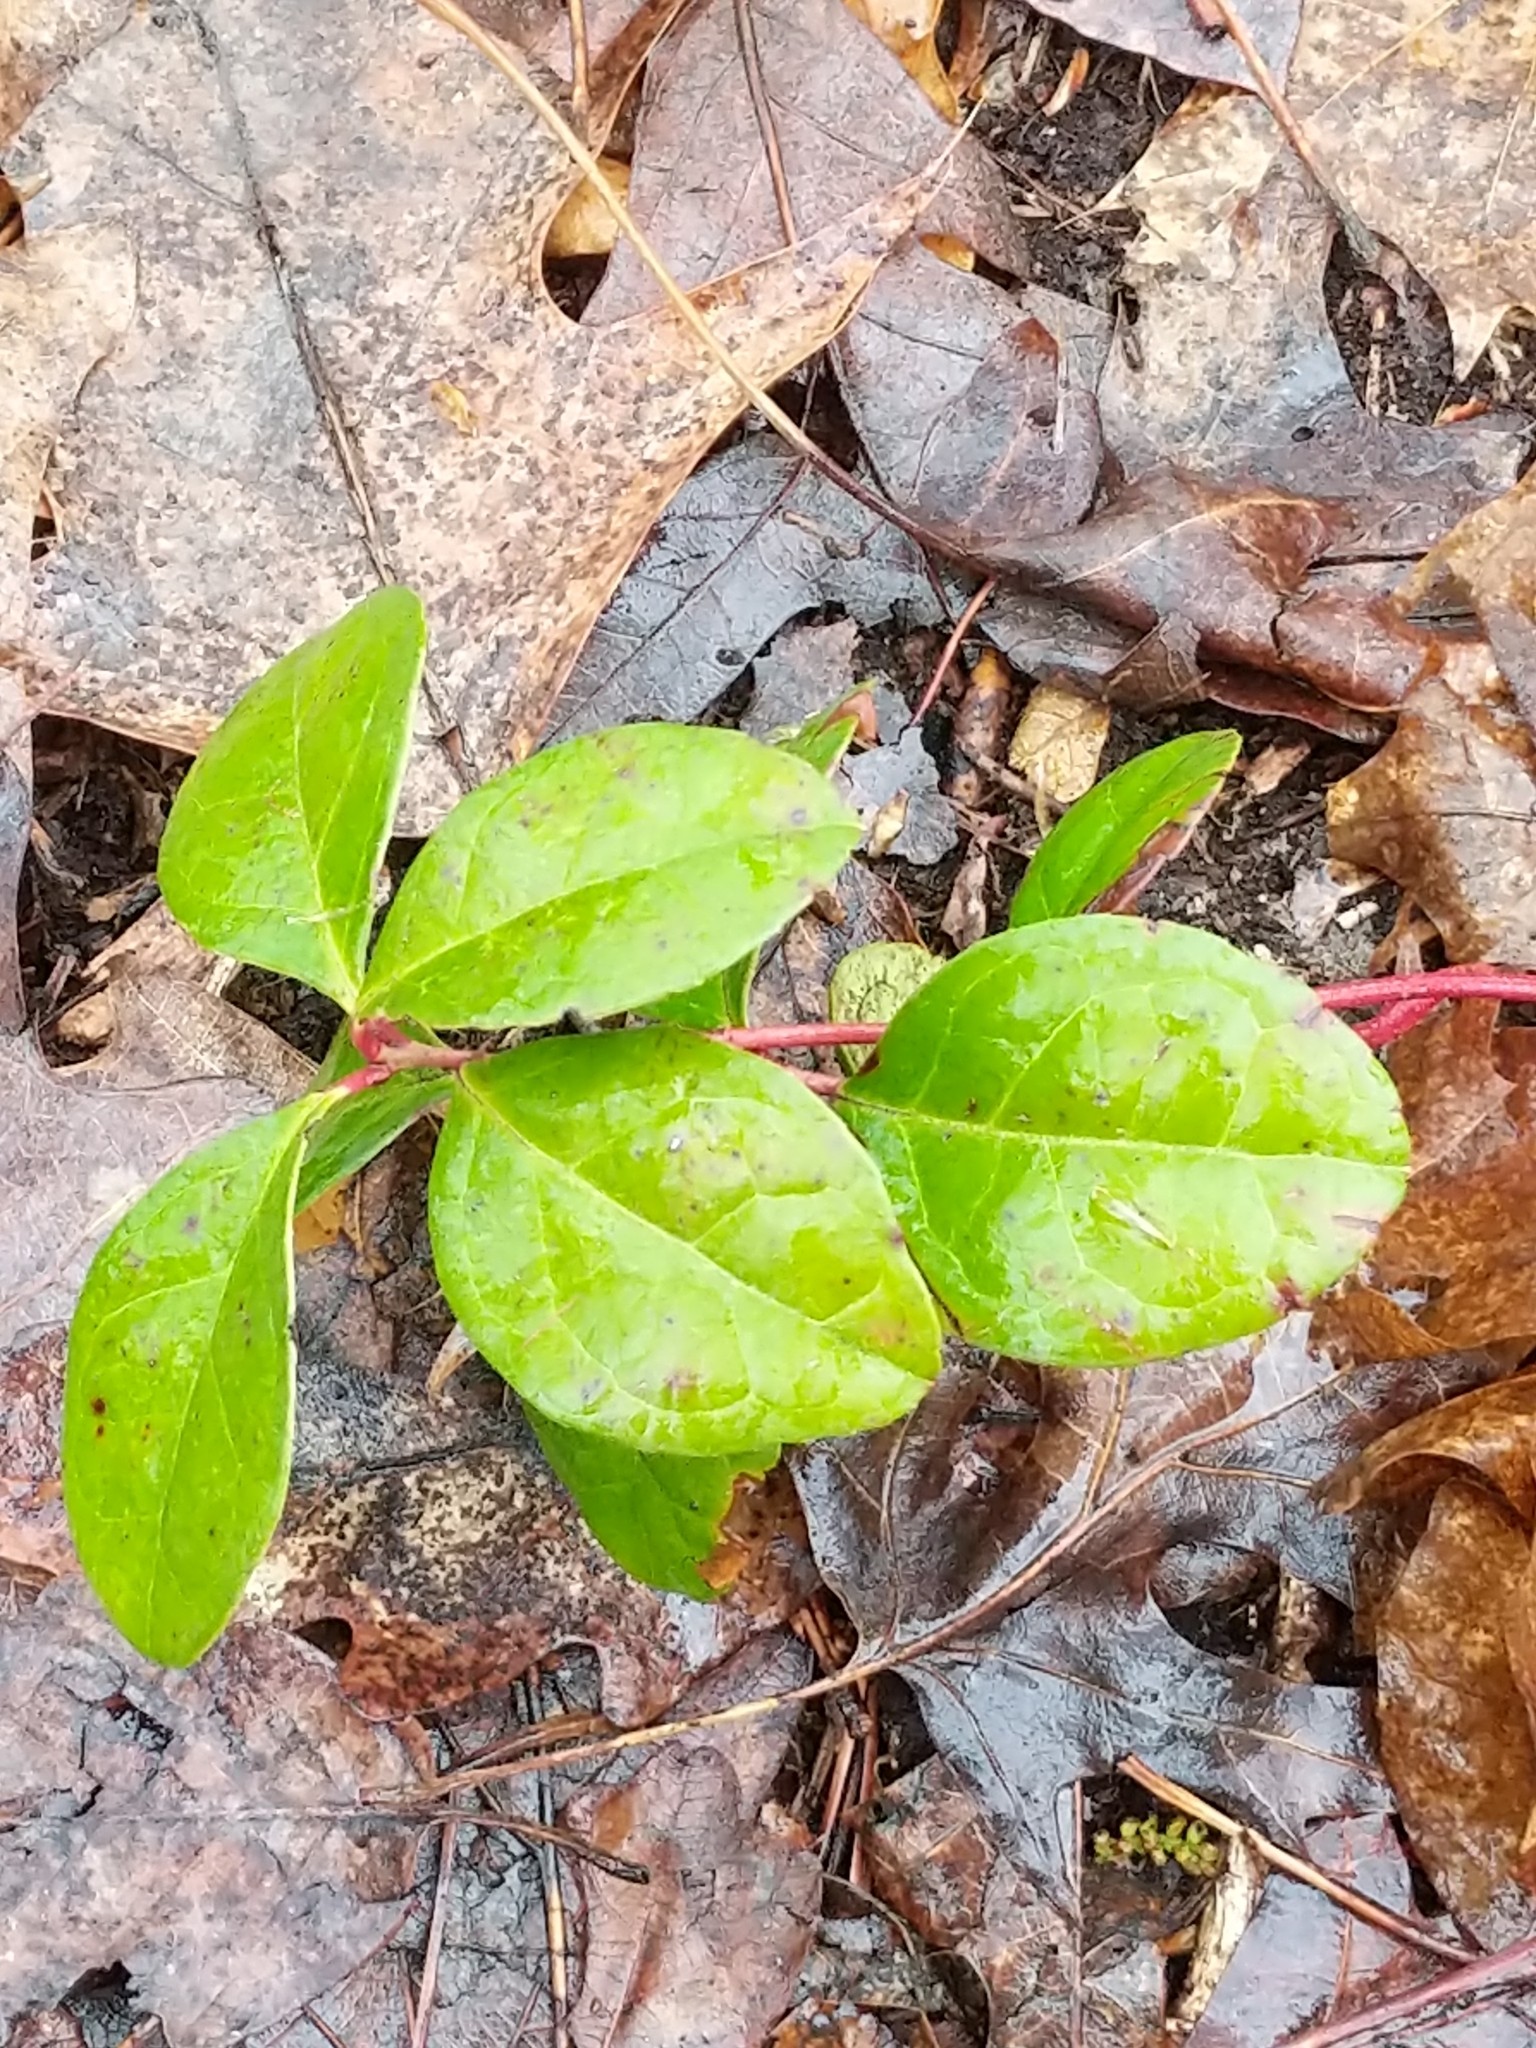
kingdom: Plantae
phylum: Tracheophyta
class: Magnoliopsida
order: Ericales
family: Ericaceae
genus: Gaultheria
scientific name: Gaultheria procumbens
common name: Checkerberry
